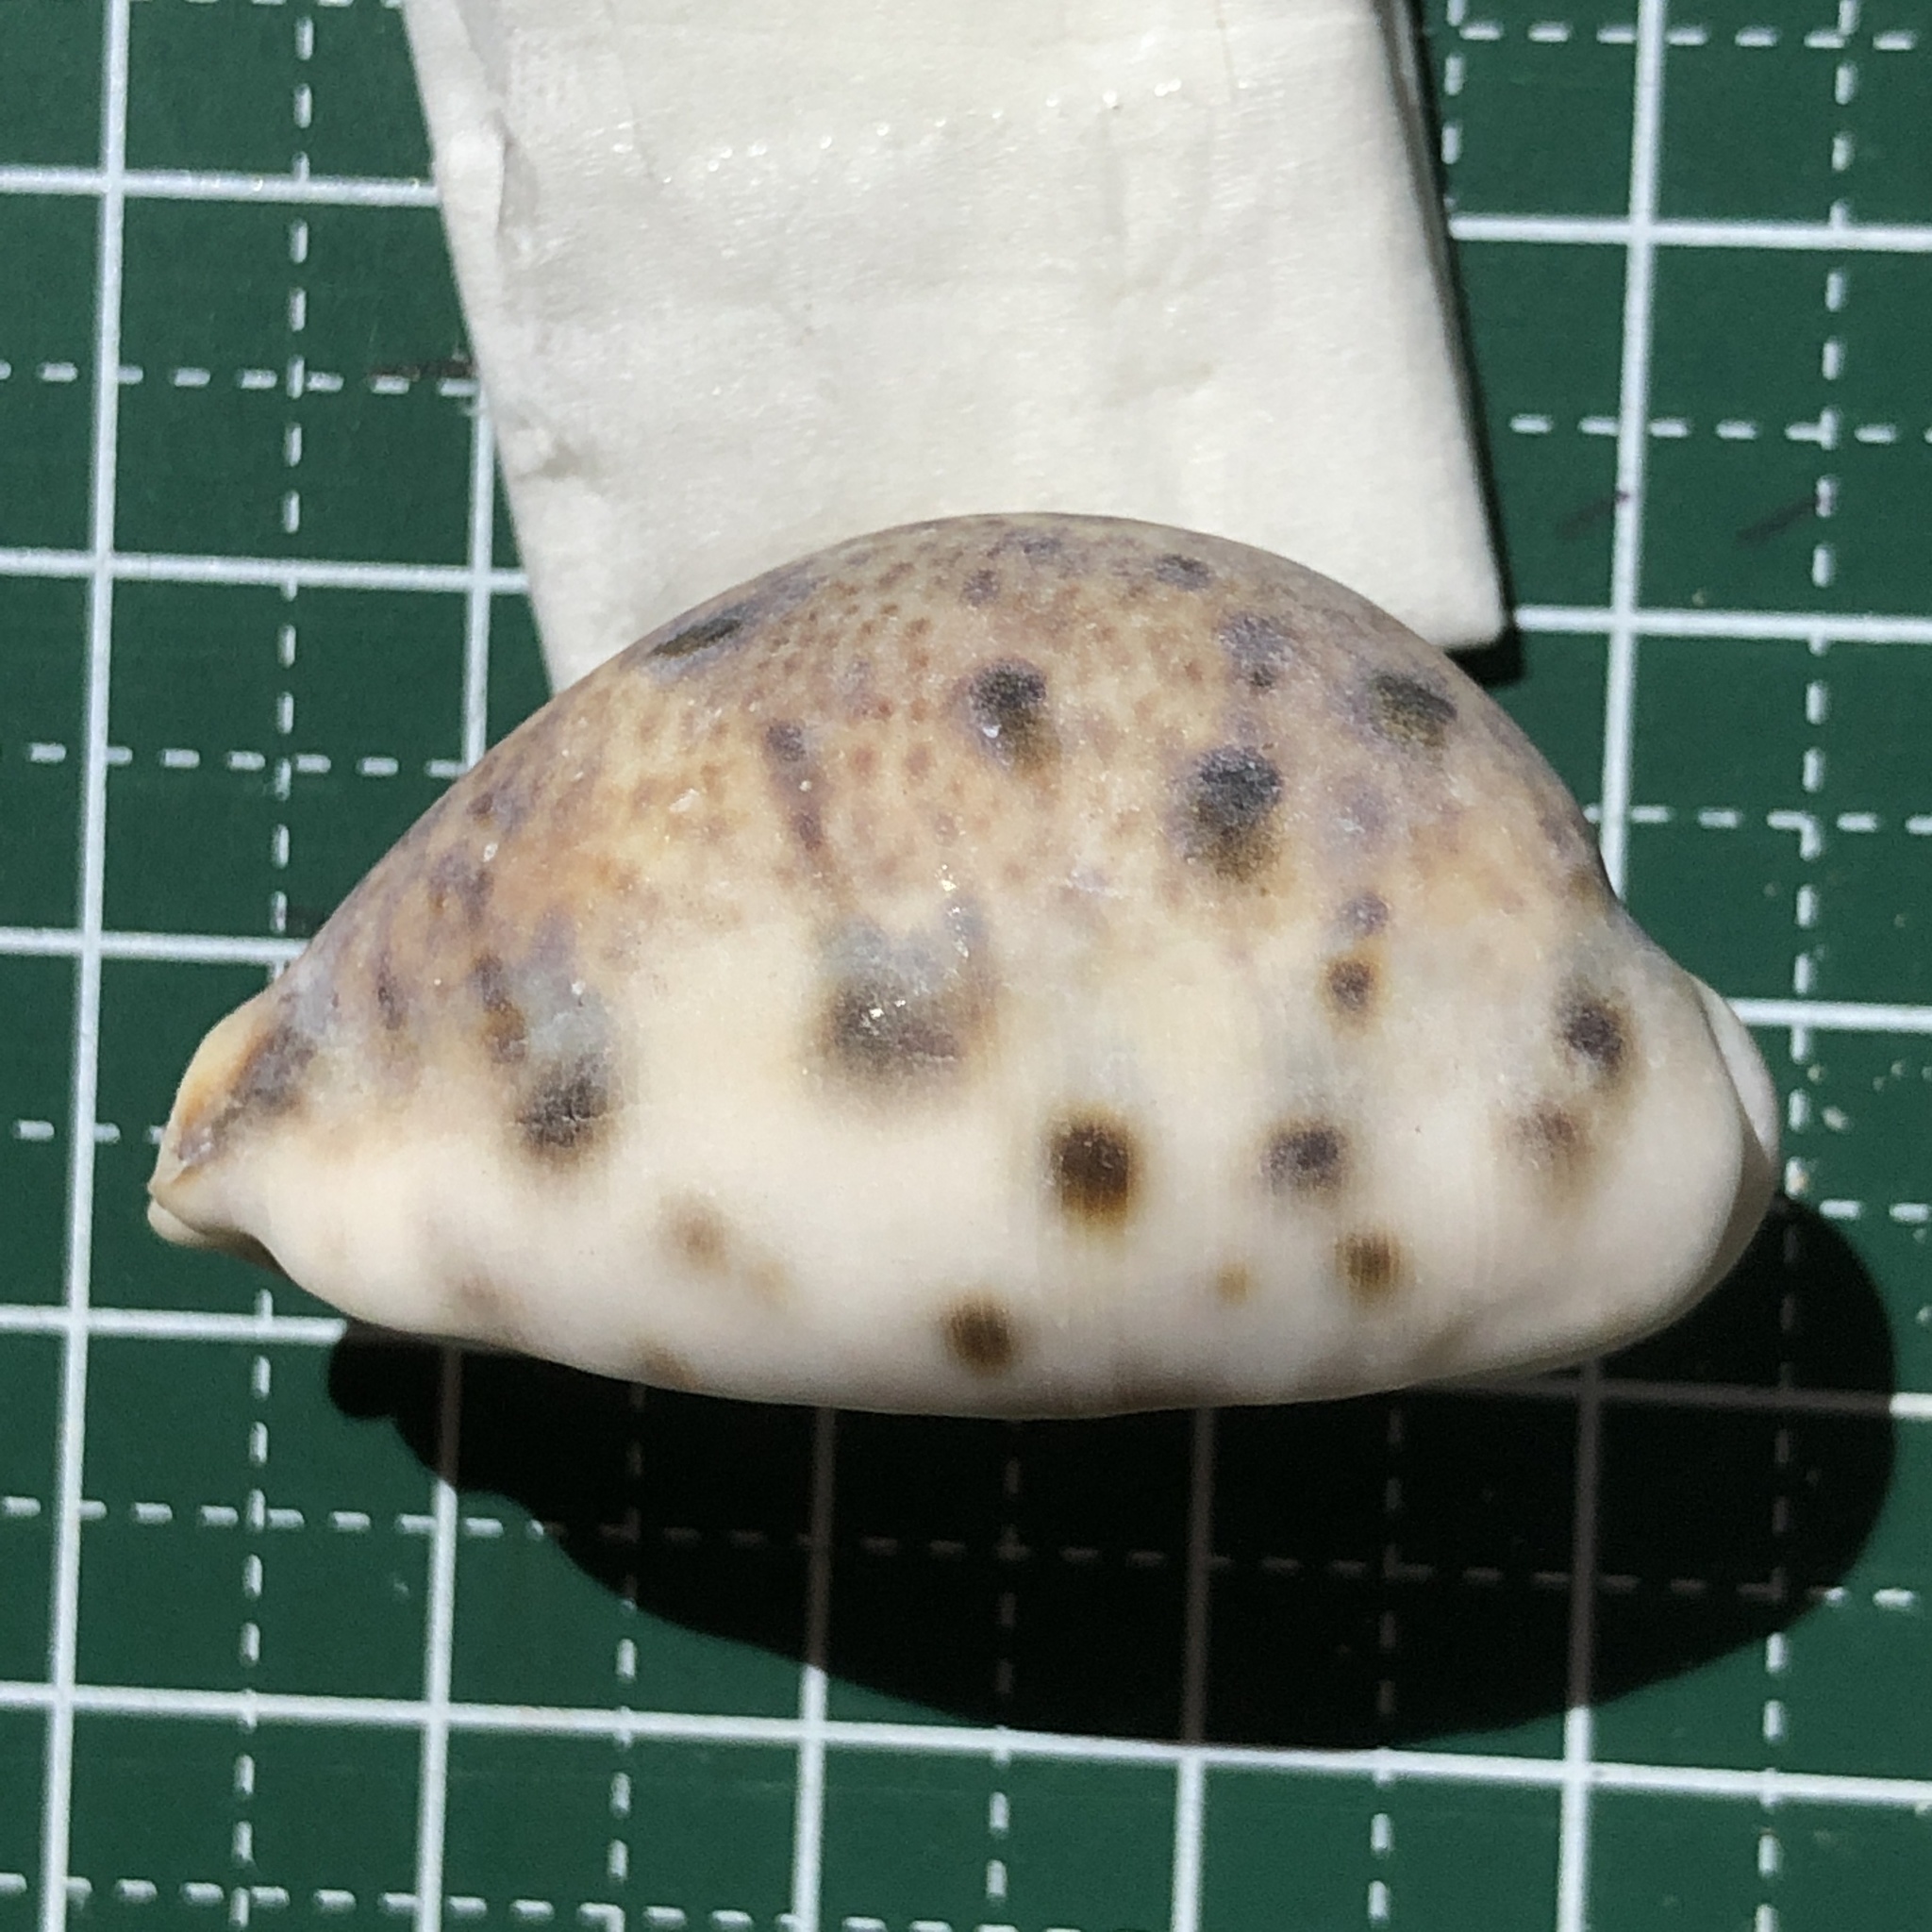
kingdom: Animalia
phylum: Mollusca
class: Gastropoda
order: Littorinimorpha
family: Cypraeidae
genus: Lyncina
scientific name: Lyncina lynx
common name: Bobcat cowrie
